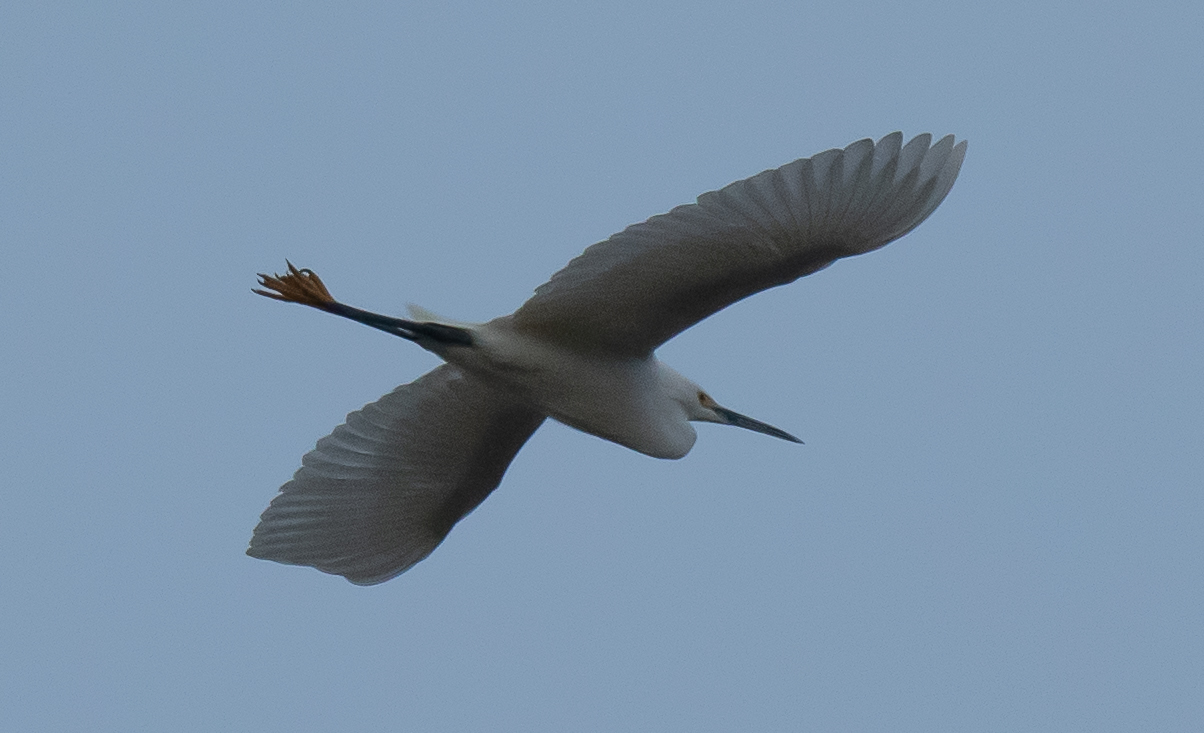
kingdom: Animalia
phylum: Chordata
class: Aves
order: Pelecaniformes
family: Ardeidae
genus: Egretta
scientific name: Egretta thula
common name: Snowy egret
